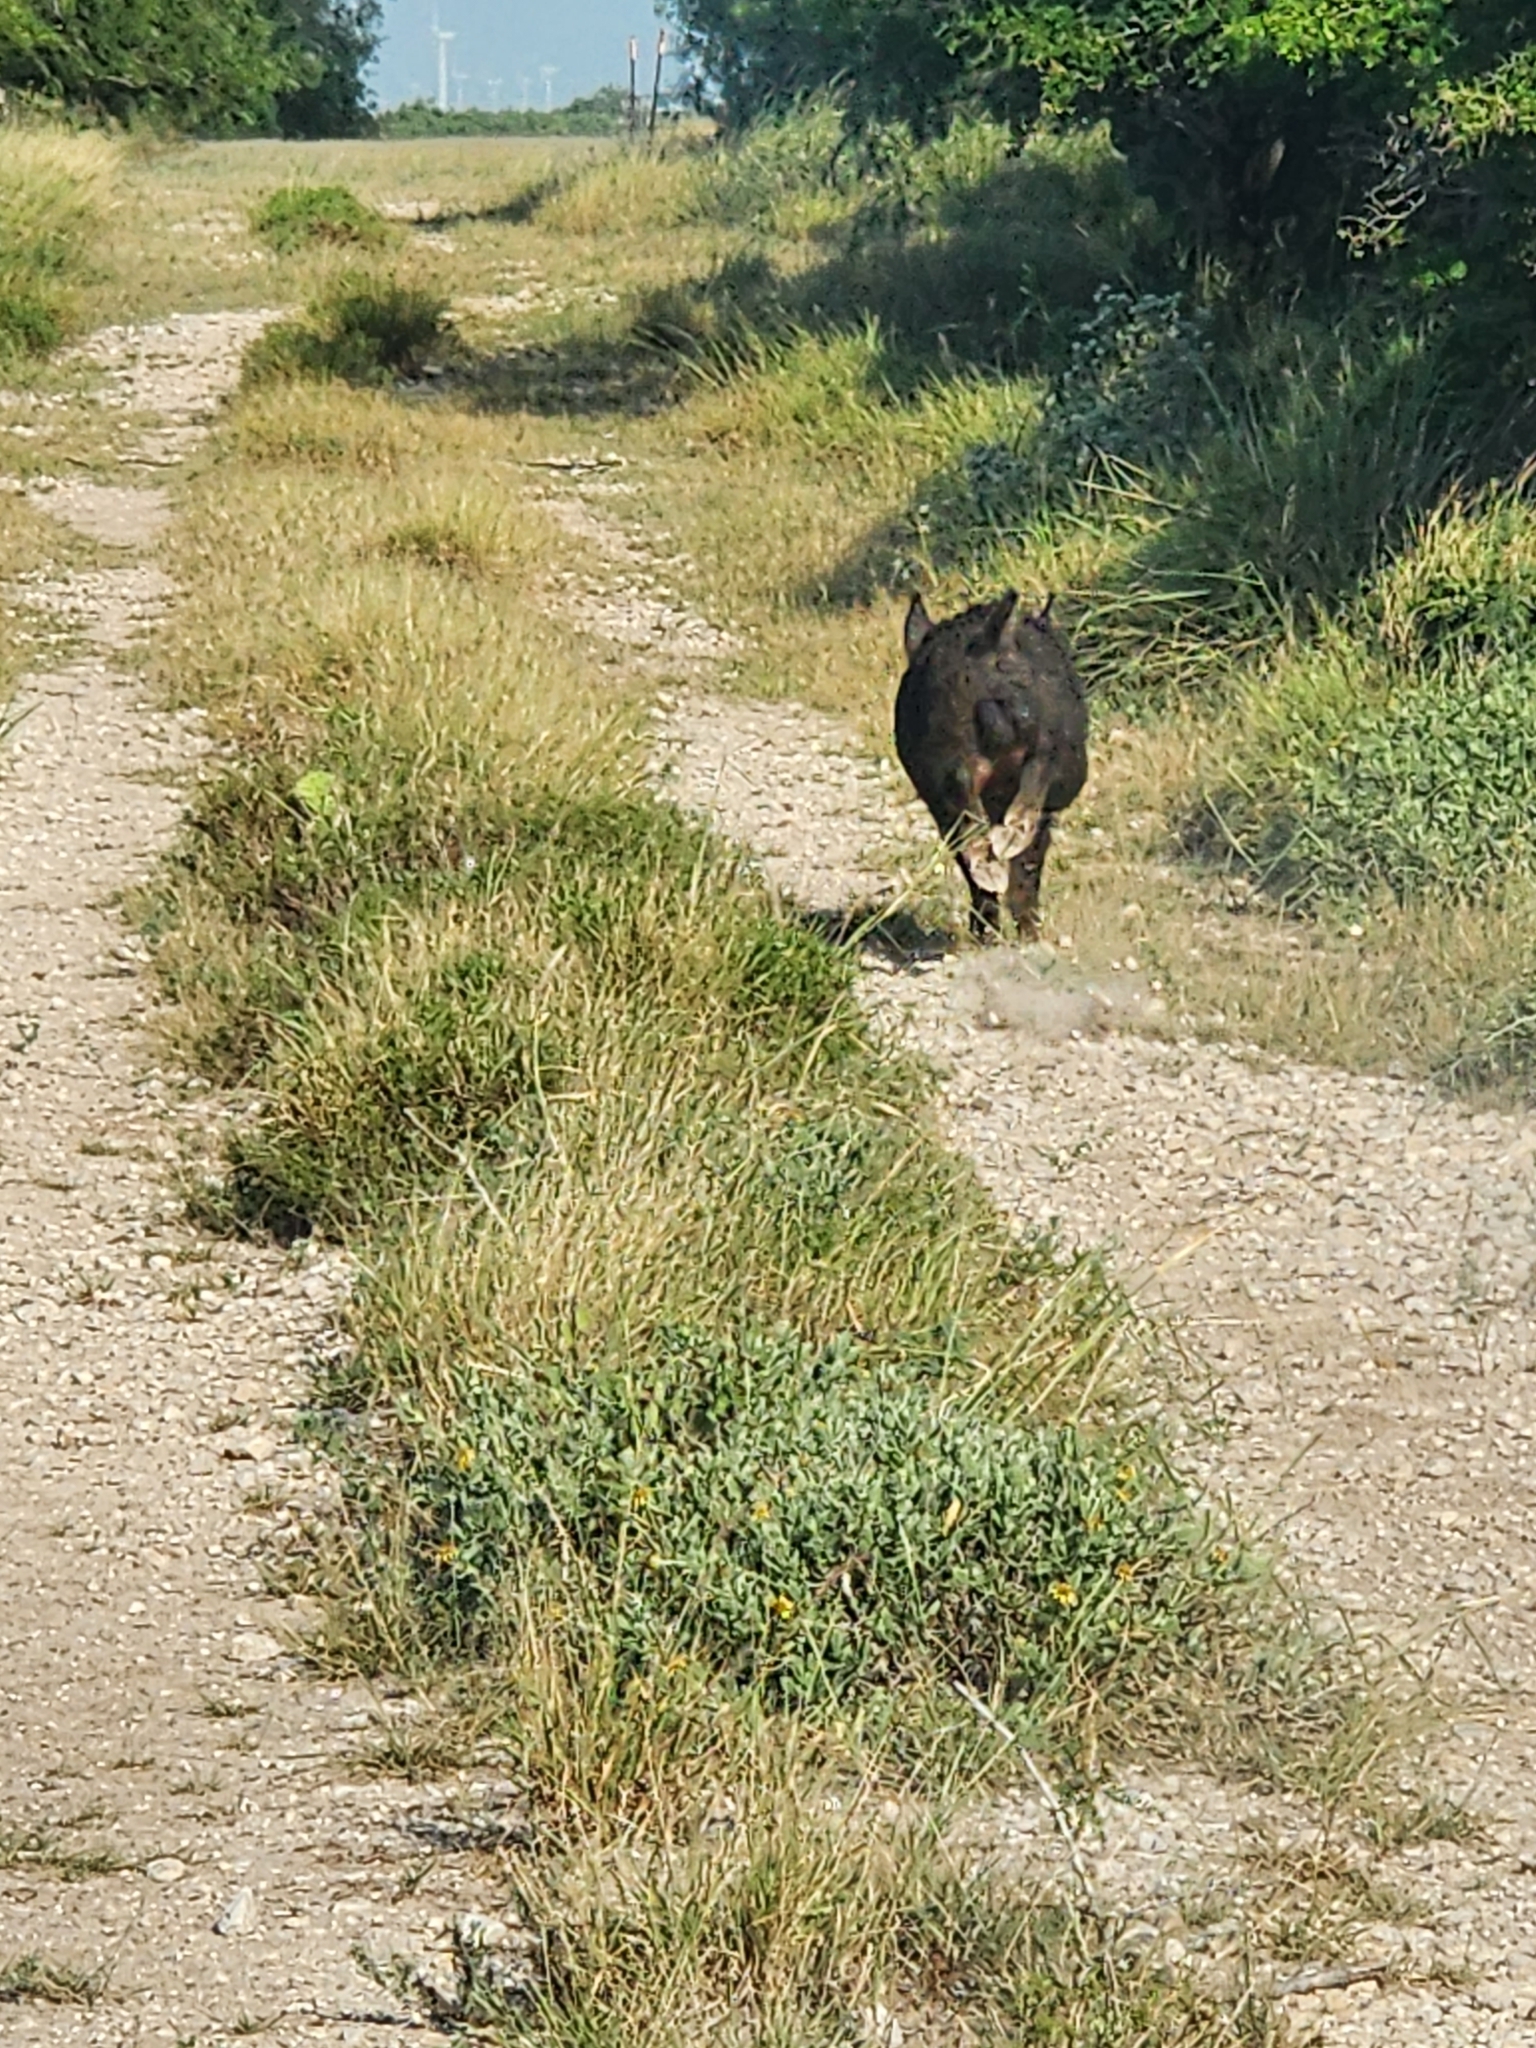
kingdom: Animalia
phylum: Chordata
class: Mammalia
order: Artiodactyla
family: Suidae
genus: Sus
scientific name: Sus scrofa
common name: Wild boar
